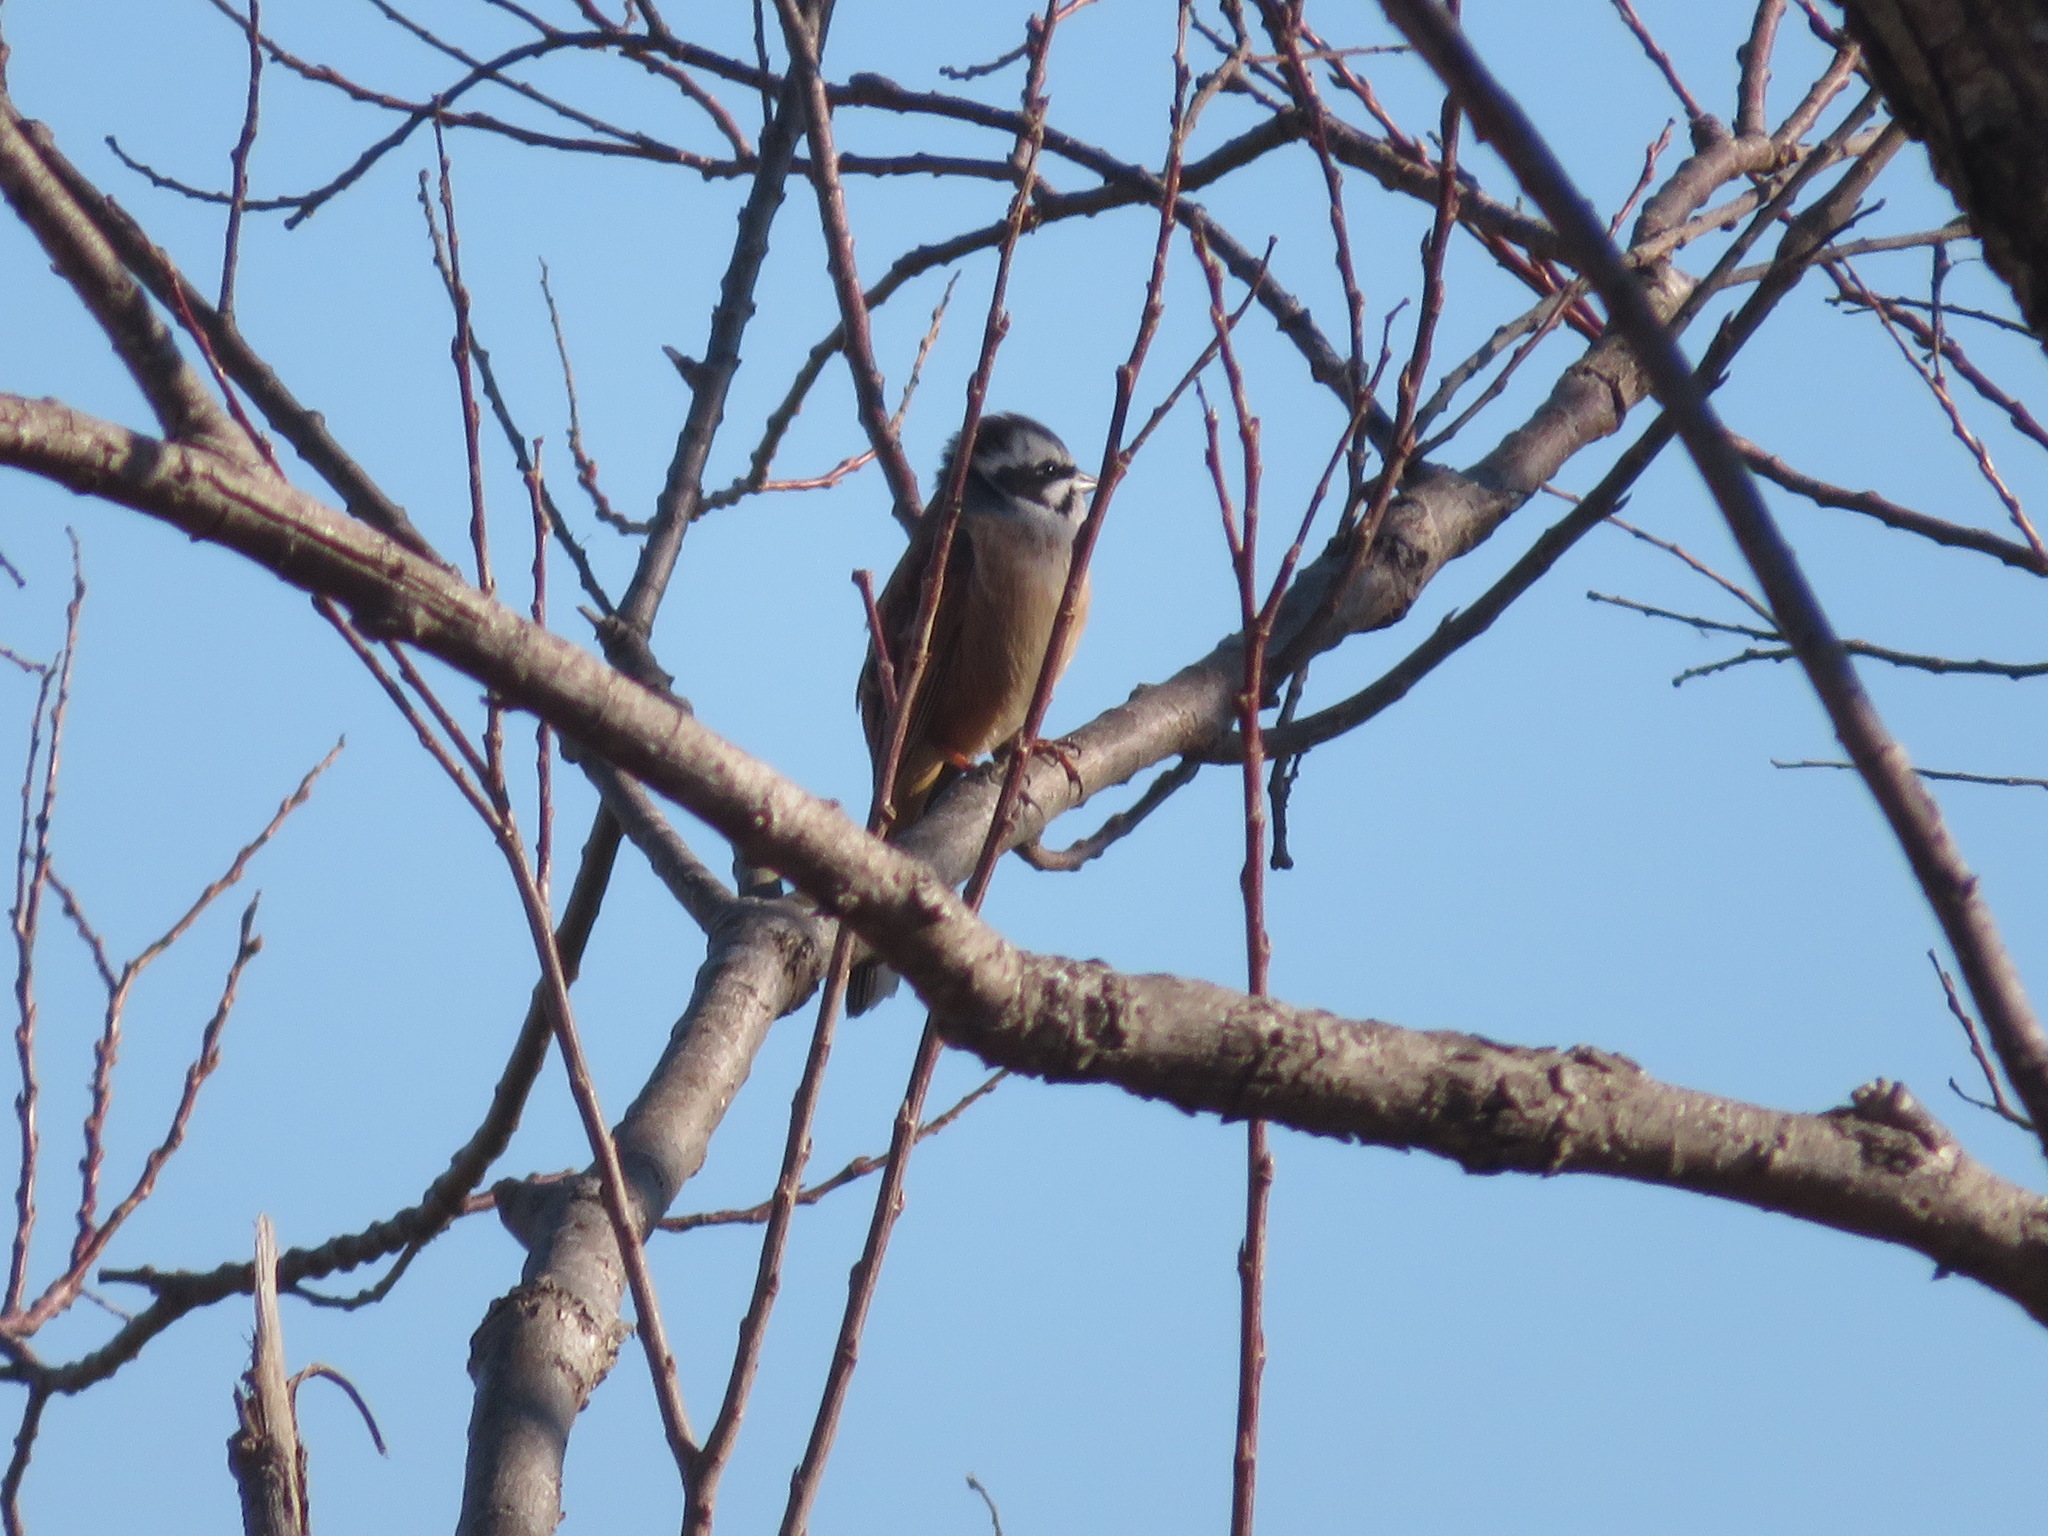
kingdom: Animalia
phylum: Chordata
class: Aves
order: Passeriformes
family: Emberizidae
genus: Emberiza
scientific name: Emberiza cioides
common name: Meadow bunting
